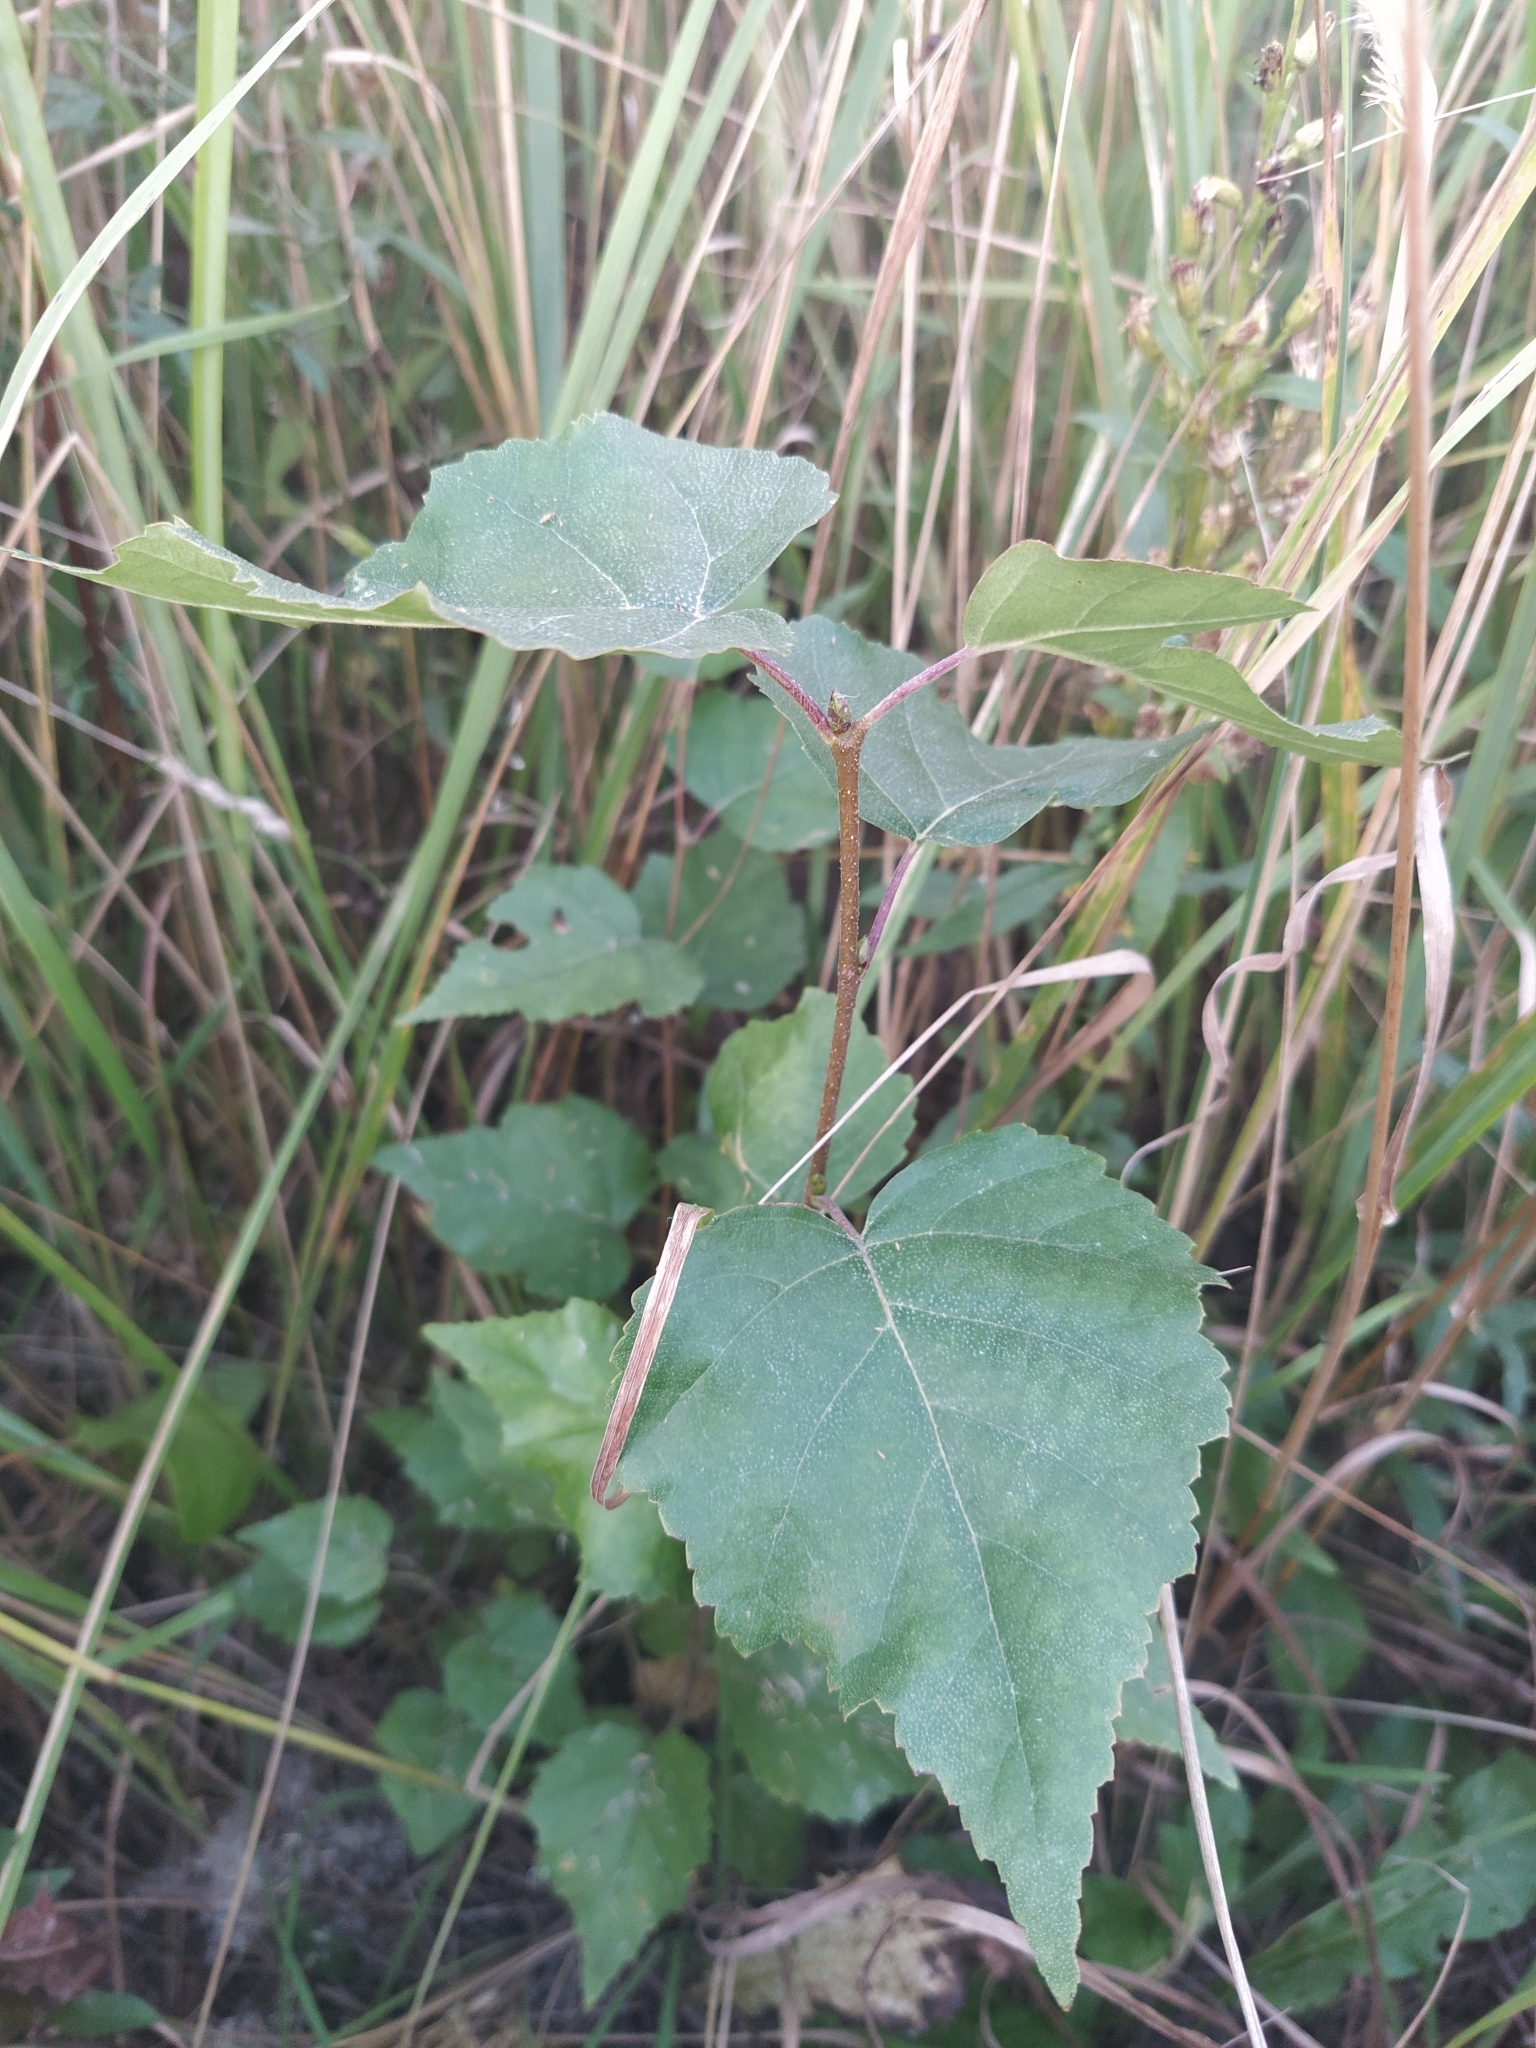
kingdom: Plantae
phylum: Tracheophyta
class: Magnoliopsida
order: Fagales
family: Betulaceae
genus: Betula
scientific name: Betula pendula
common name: Silver birch
